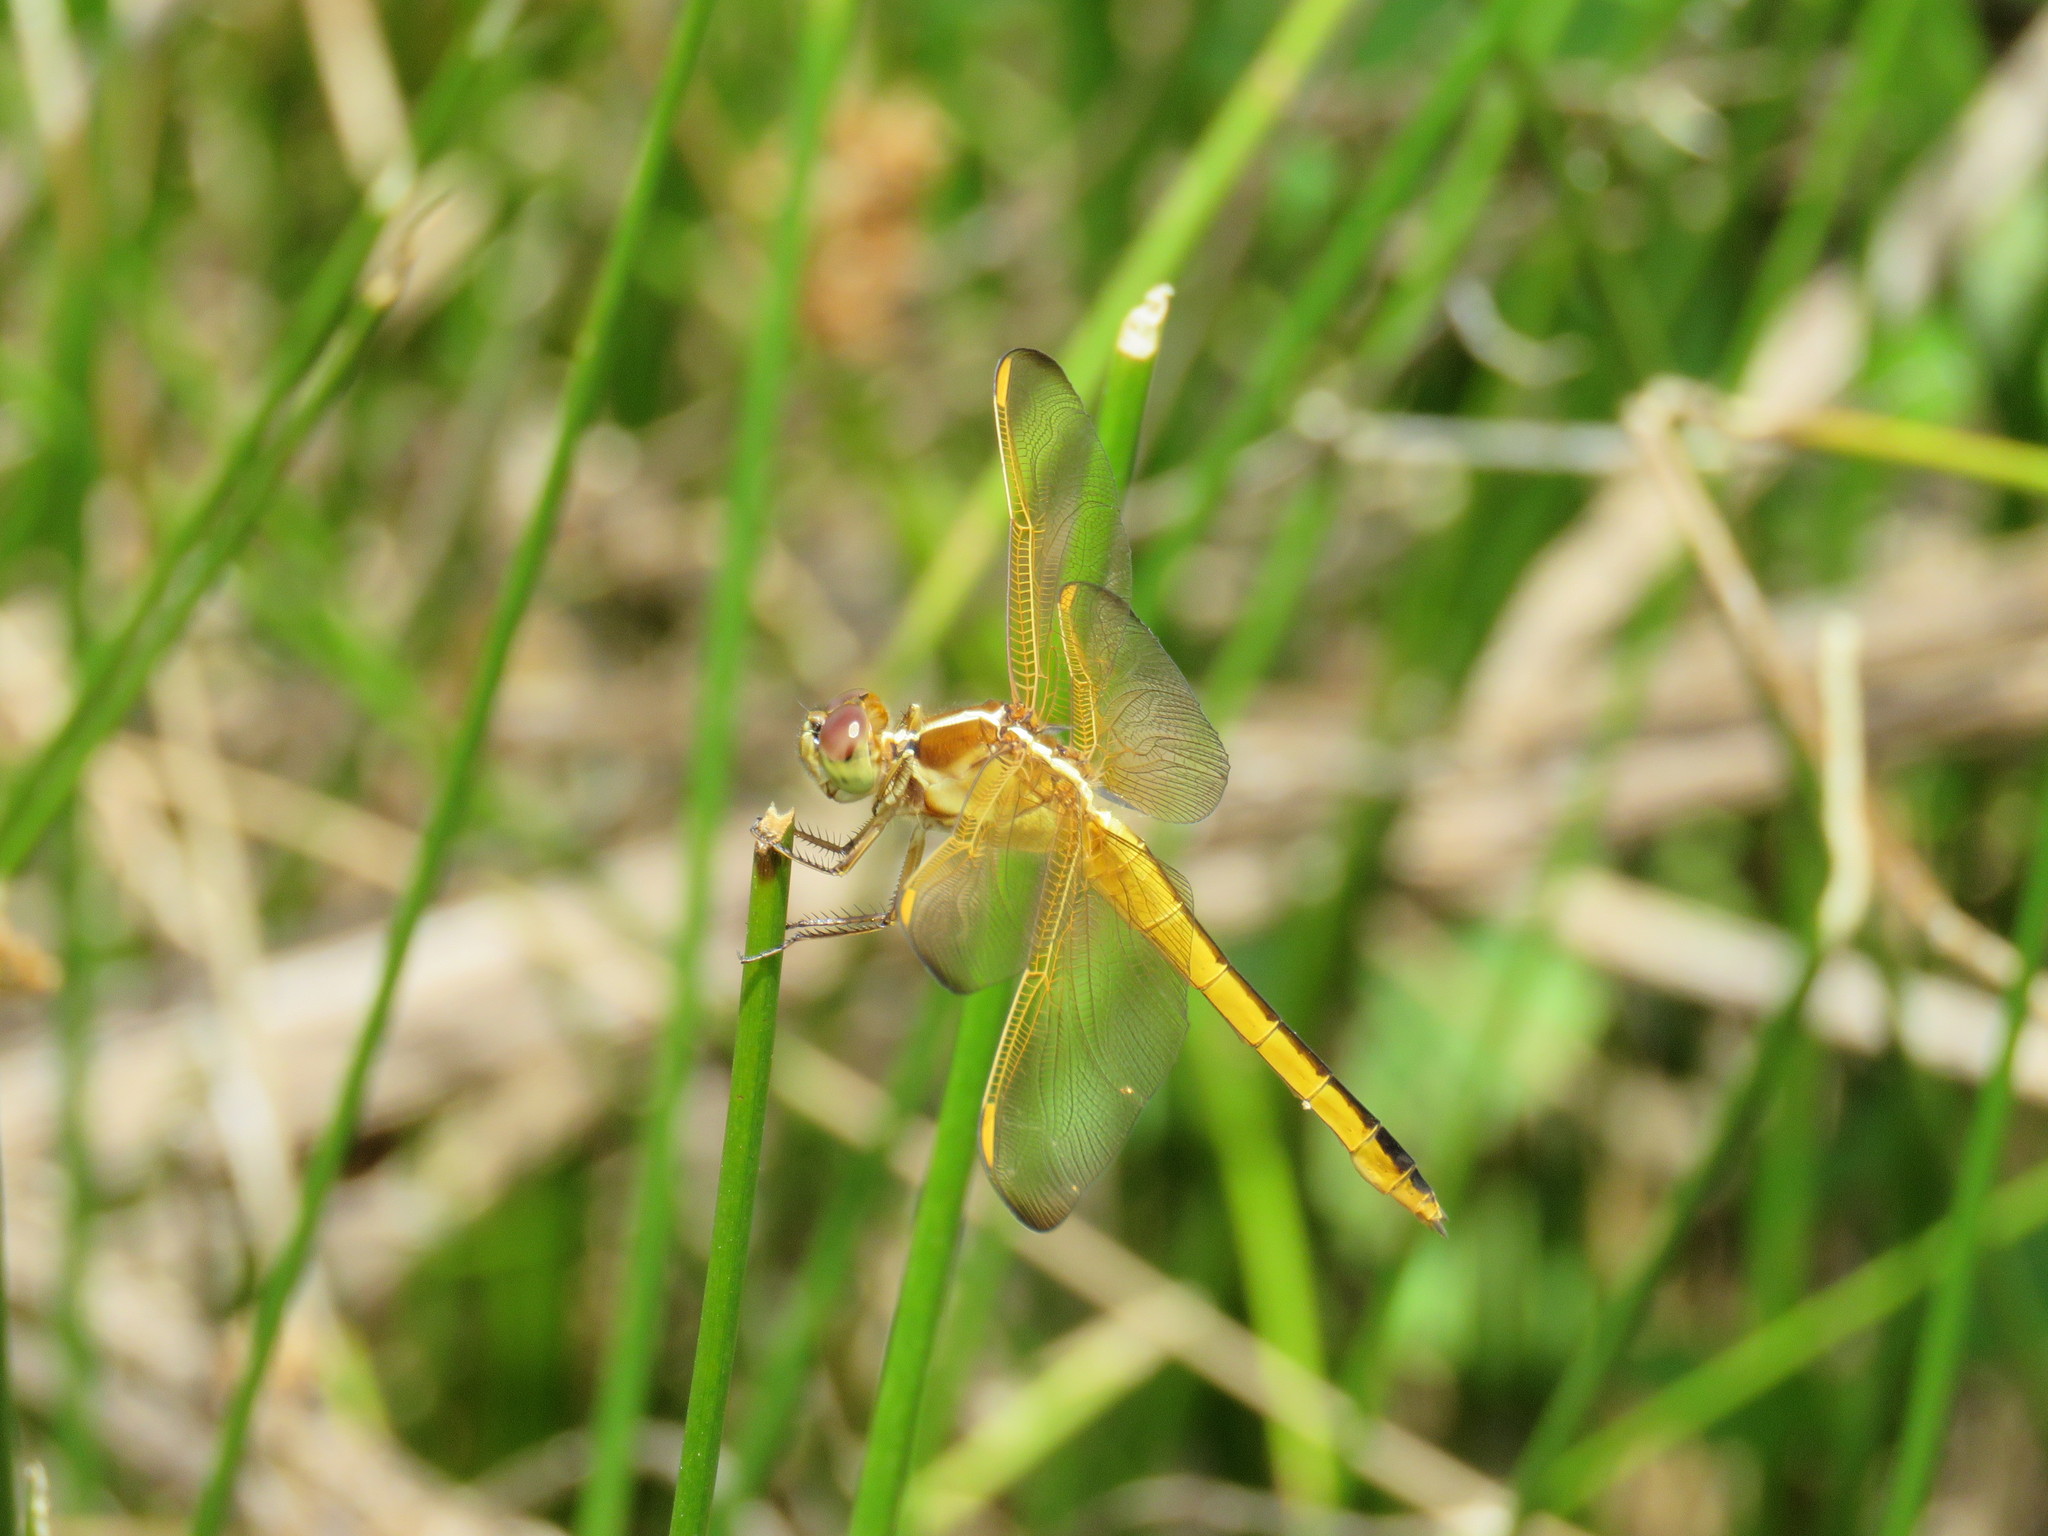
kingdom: Animalia
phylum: Arthropoda
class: Insecta
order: Odonata
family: Libellulidae
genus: Libellula
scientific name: Libellula needhami
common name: Needham's skimmer
